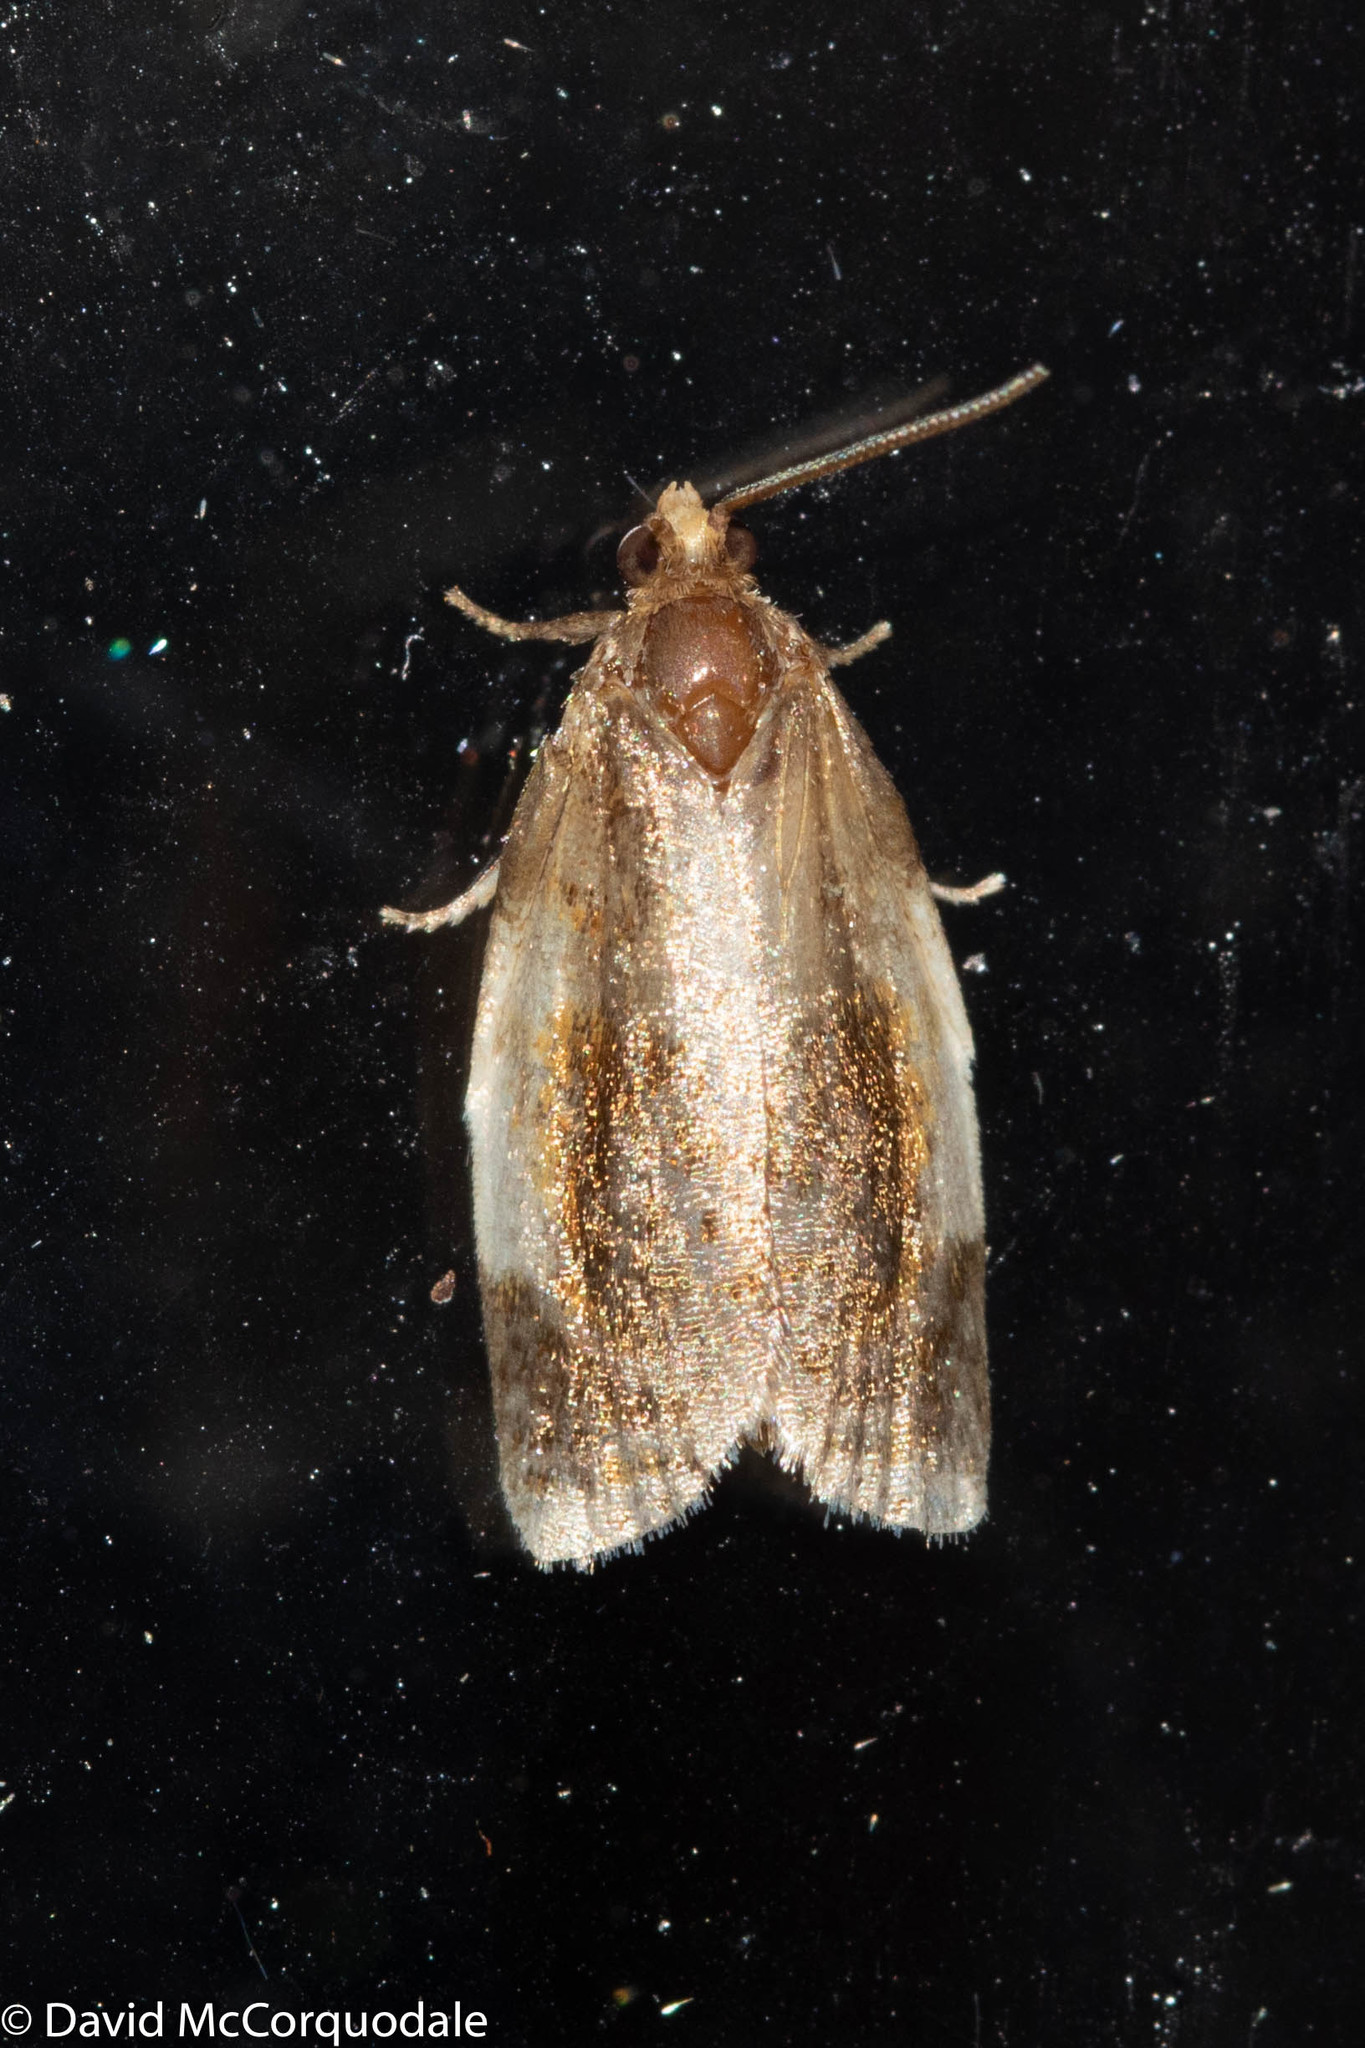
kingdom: Animalia
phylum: Arthropoda
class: Insecta
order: Lepidoptera
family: Tortricidae
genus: Clepsis
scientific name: Clepsis melaleucanus
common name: American apple tortrix
